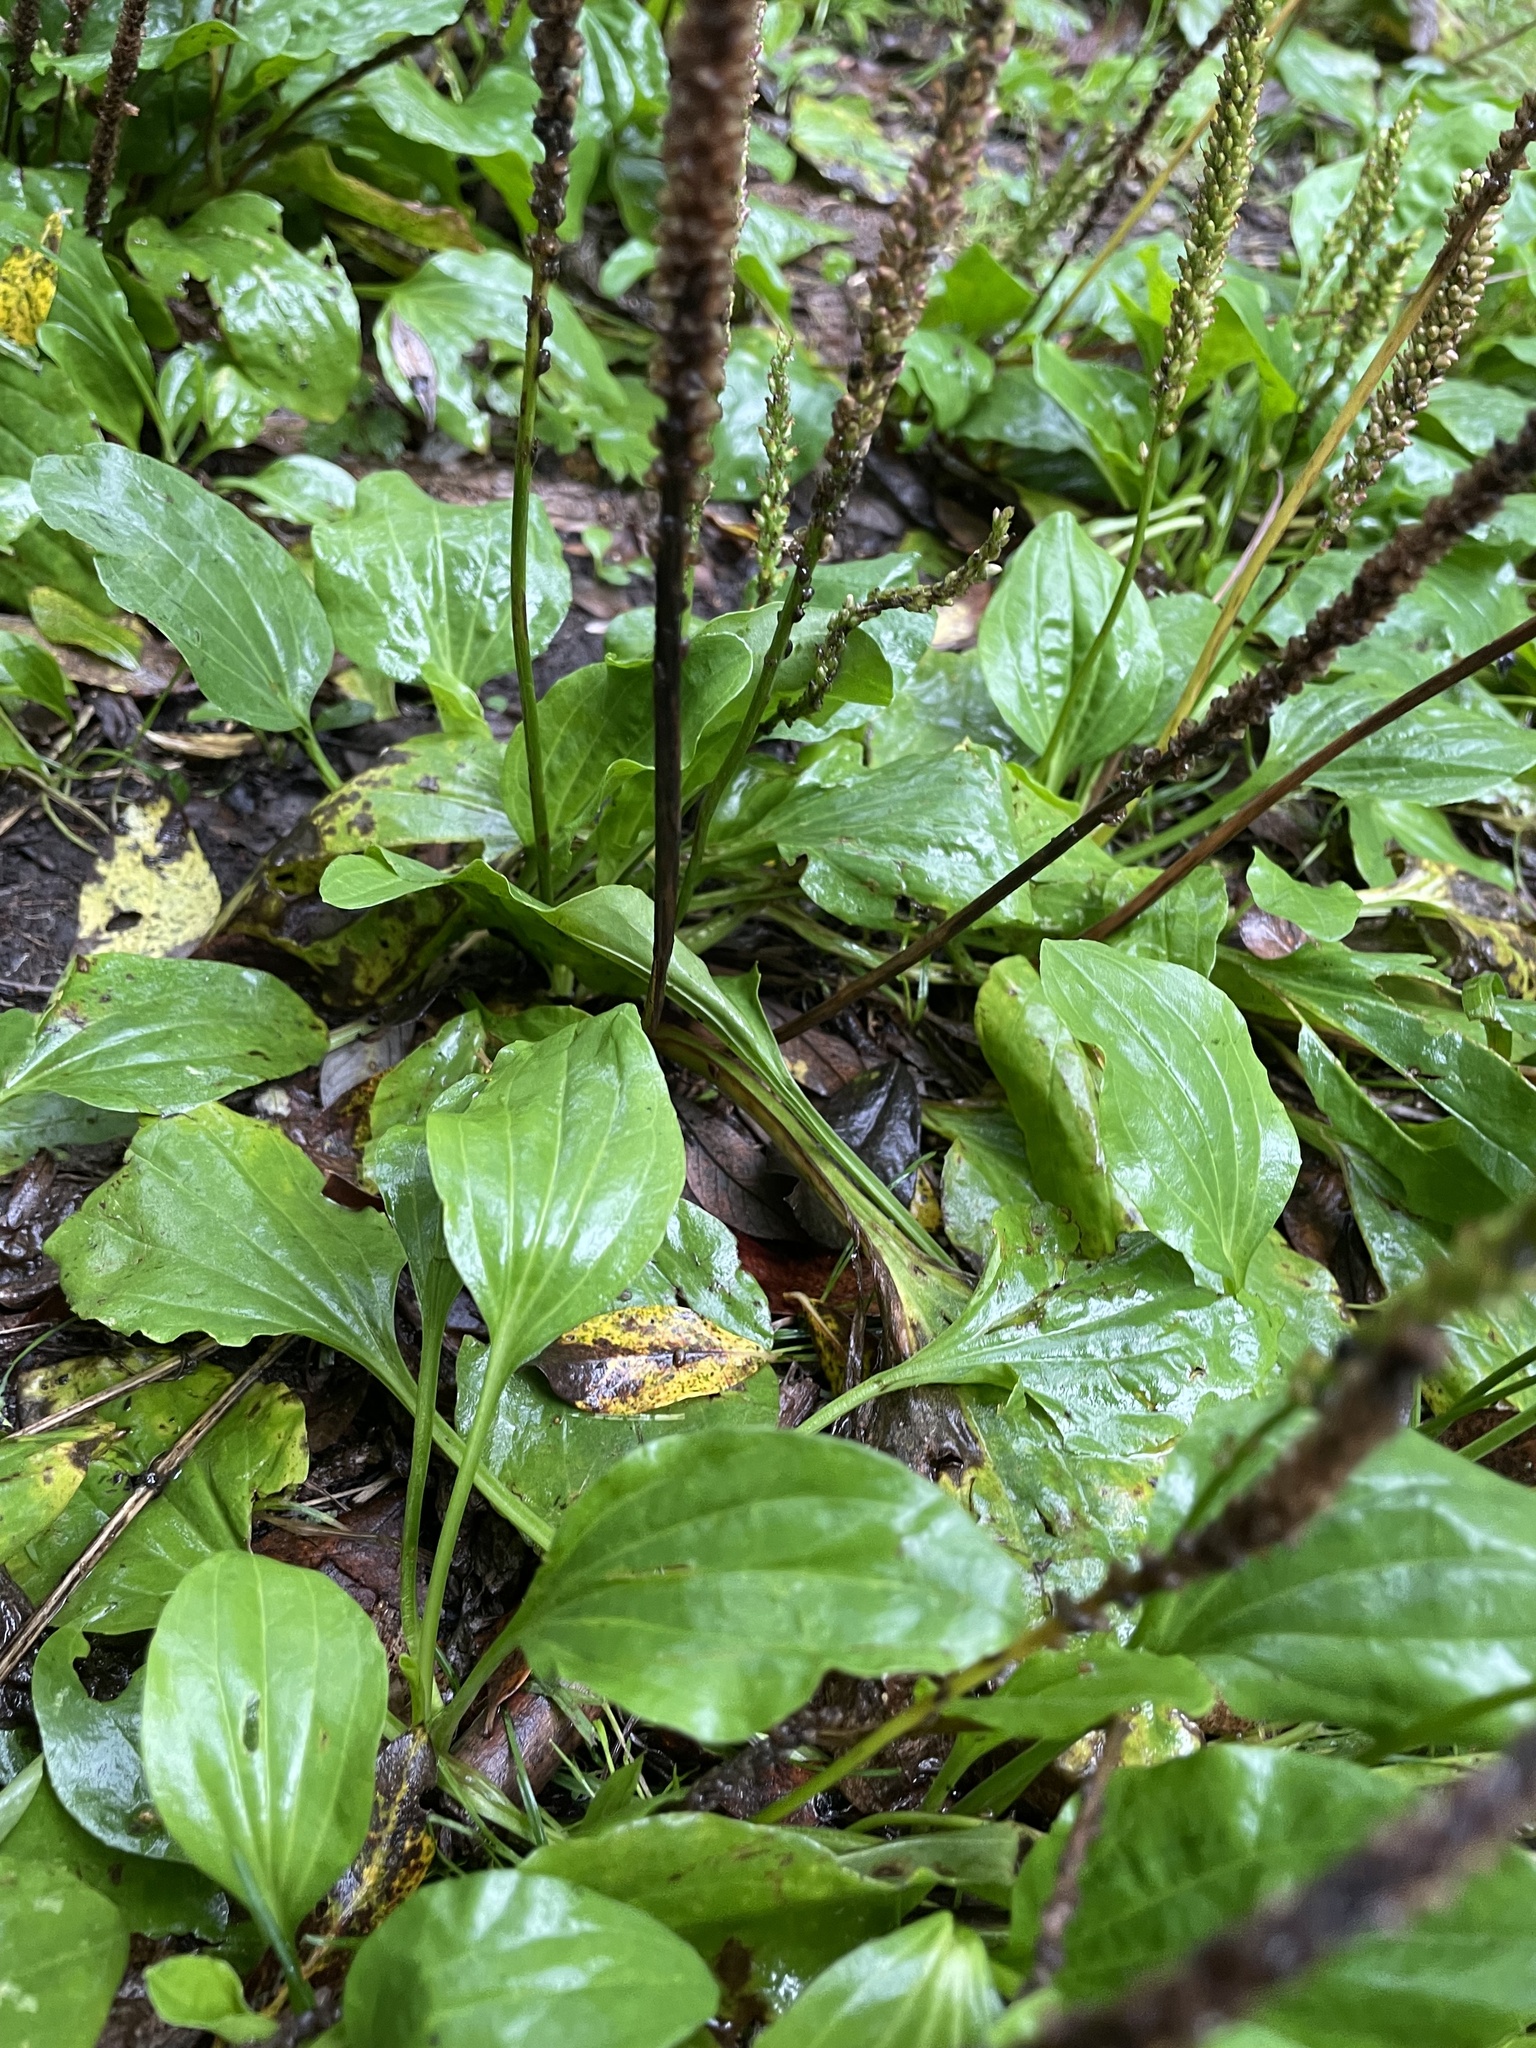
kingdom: Plantae
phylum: Tracheophyta
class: Magnoliopsida
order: Lamiales
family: Plantaginaceae
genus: Plantago
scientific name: Plantago major
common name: Common plantain
